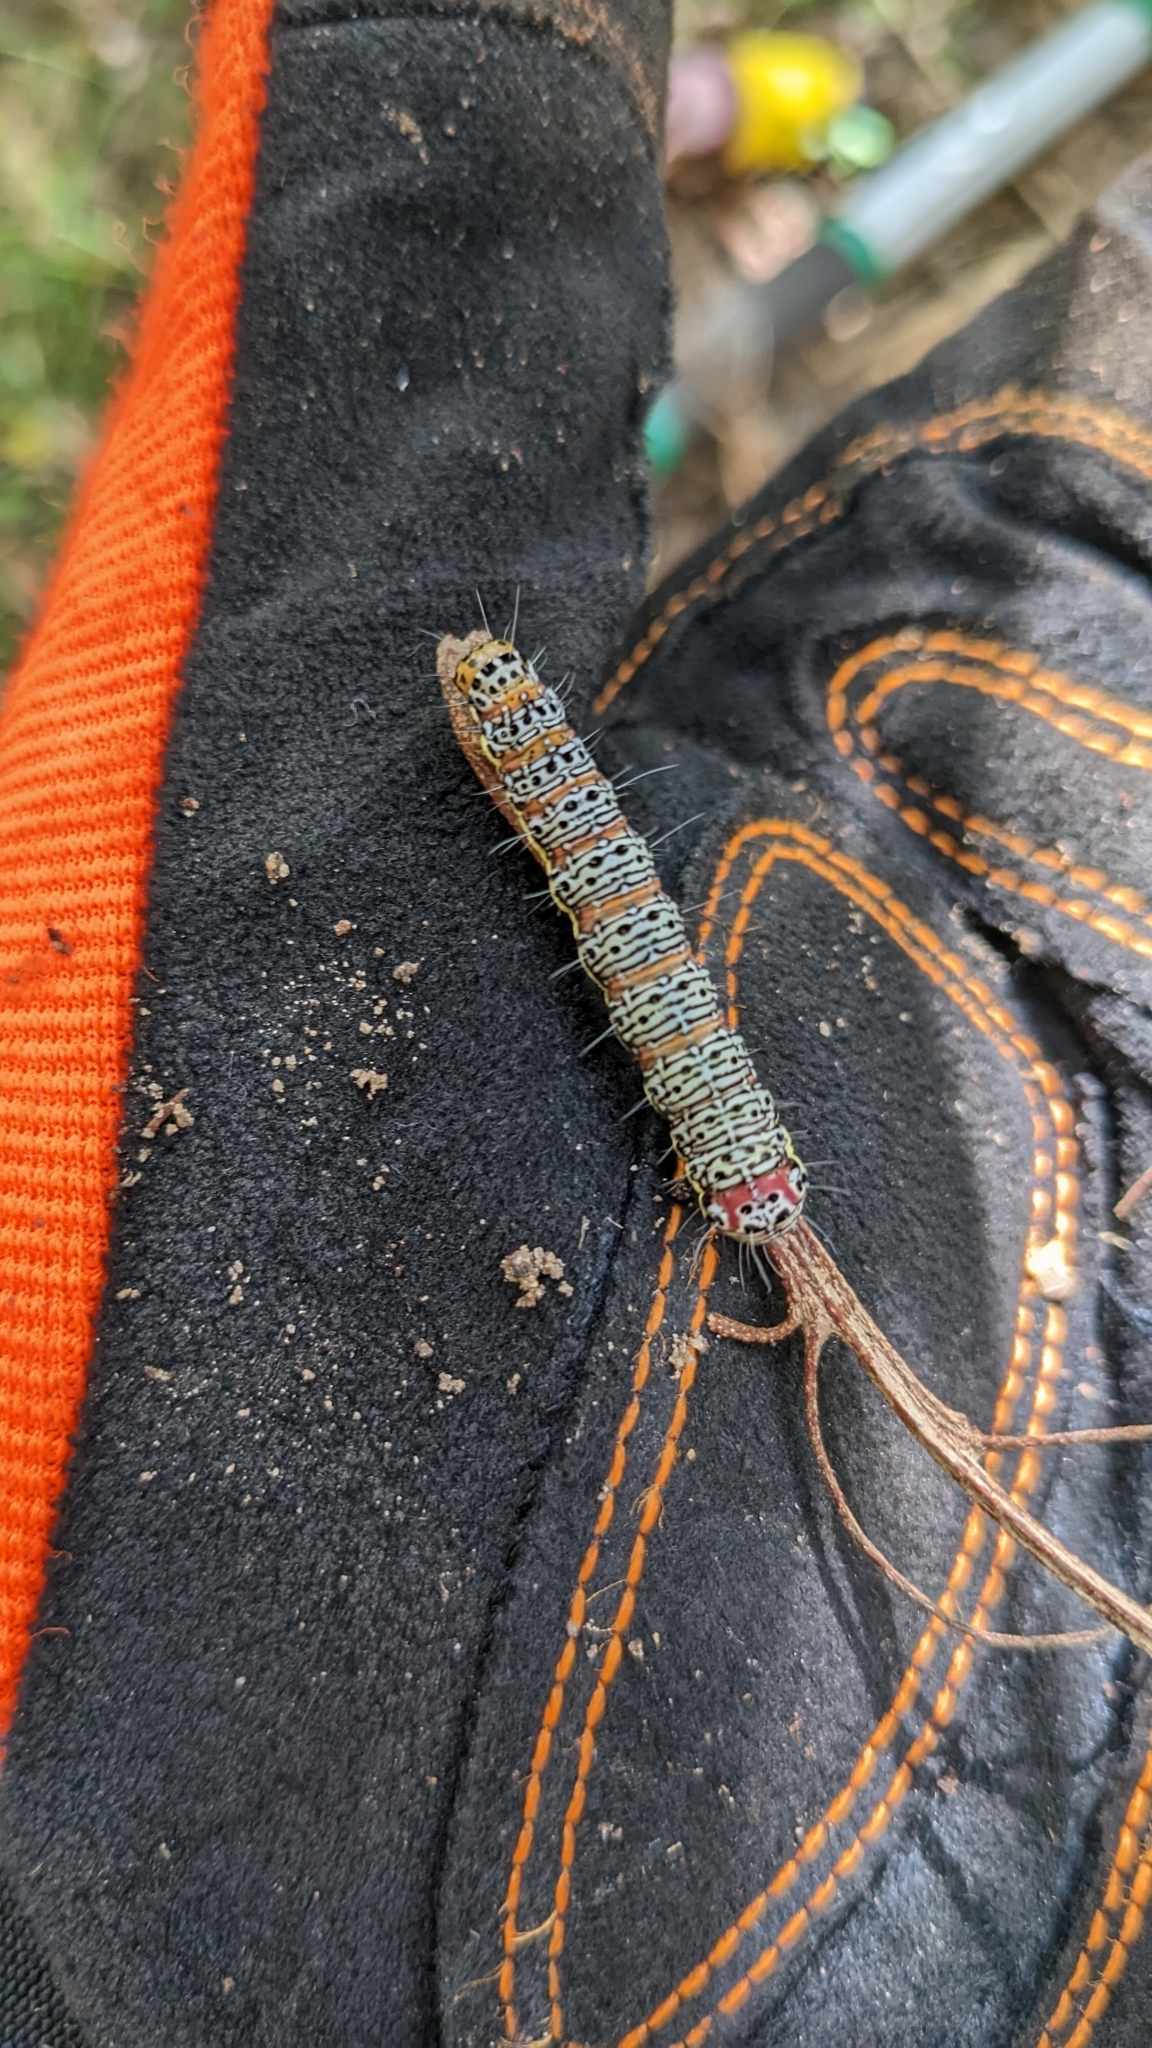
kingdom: Animalia
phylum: Arthropoda
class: Insecta
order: Lepidoptera
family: Noctuidae
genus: Hecatesia
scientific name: Hecatesia fenestrata
